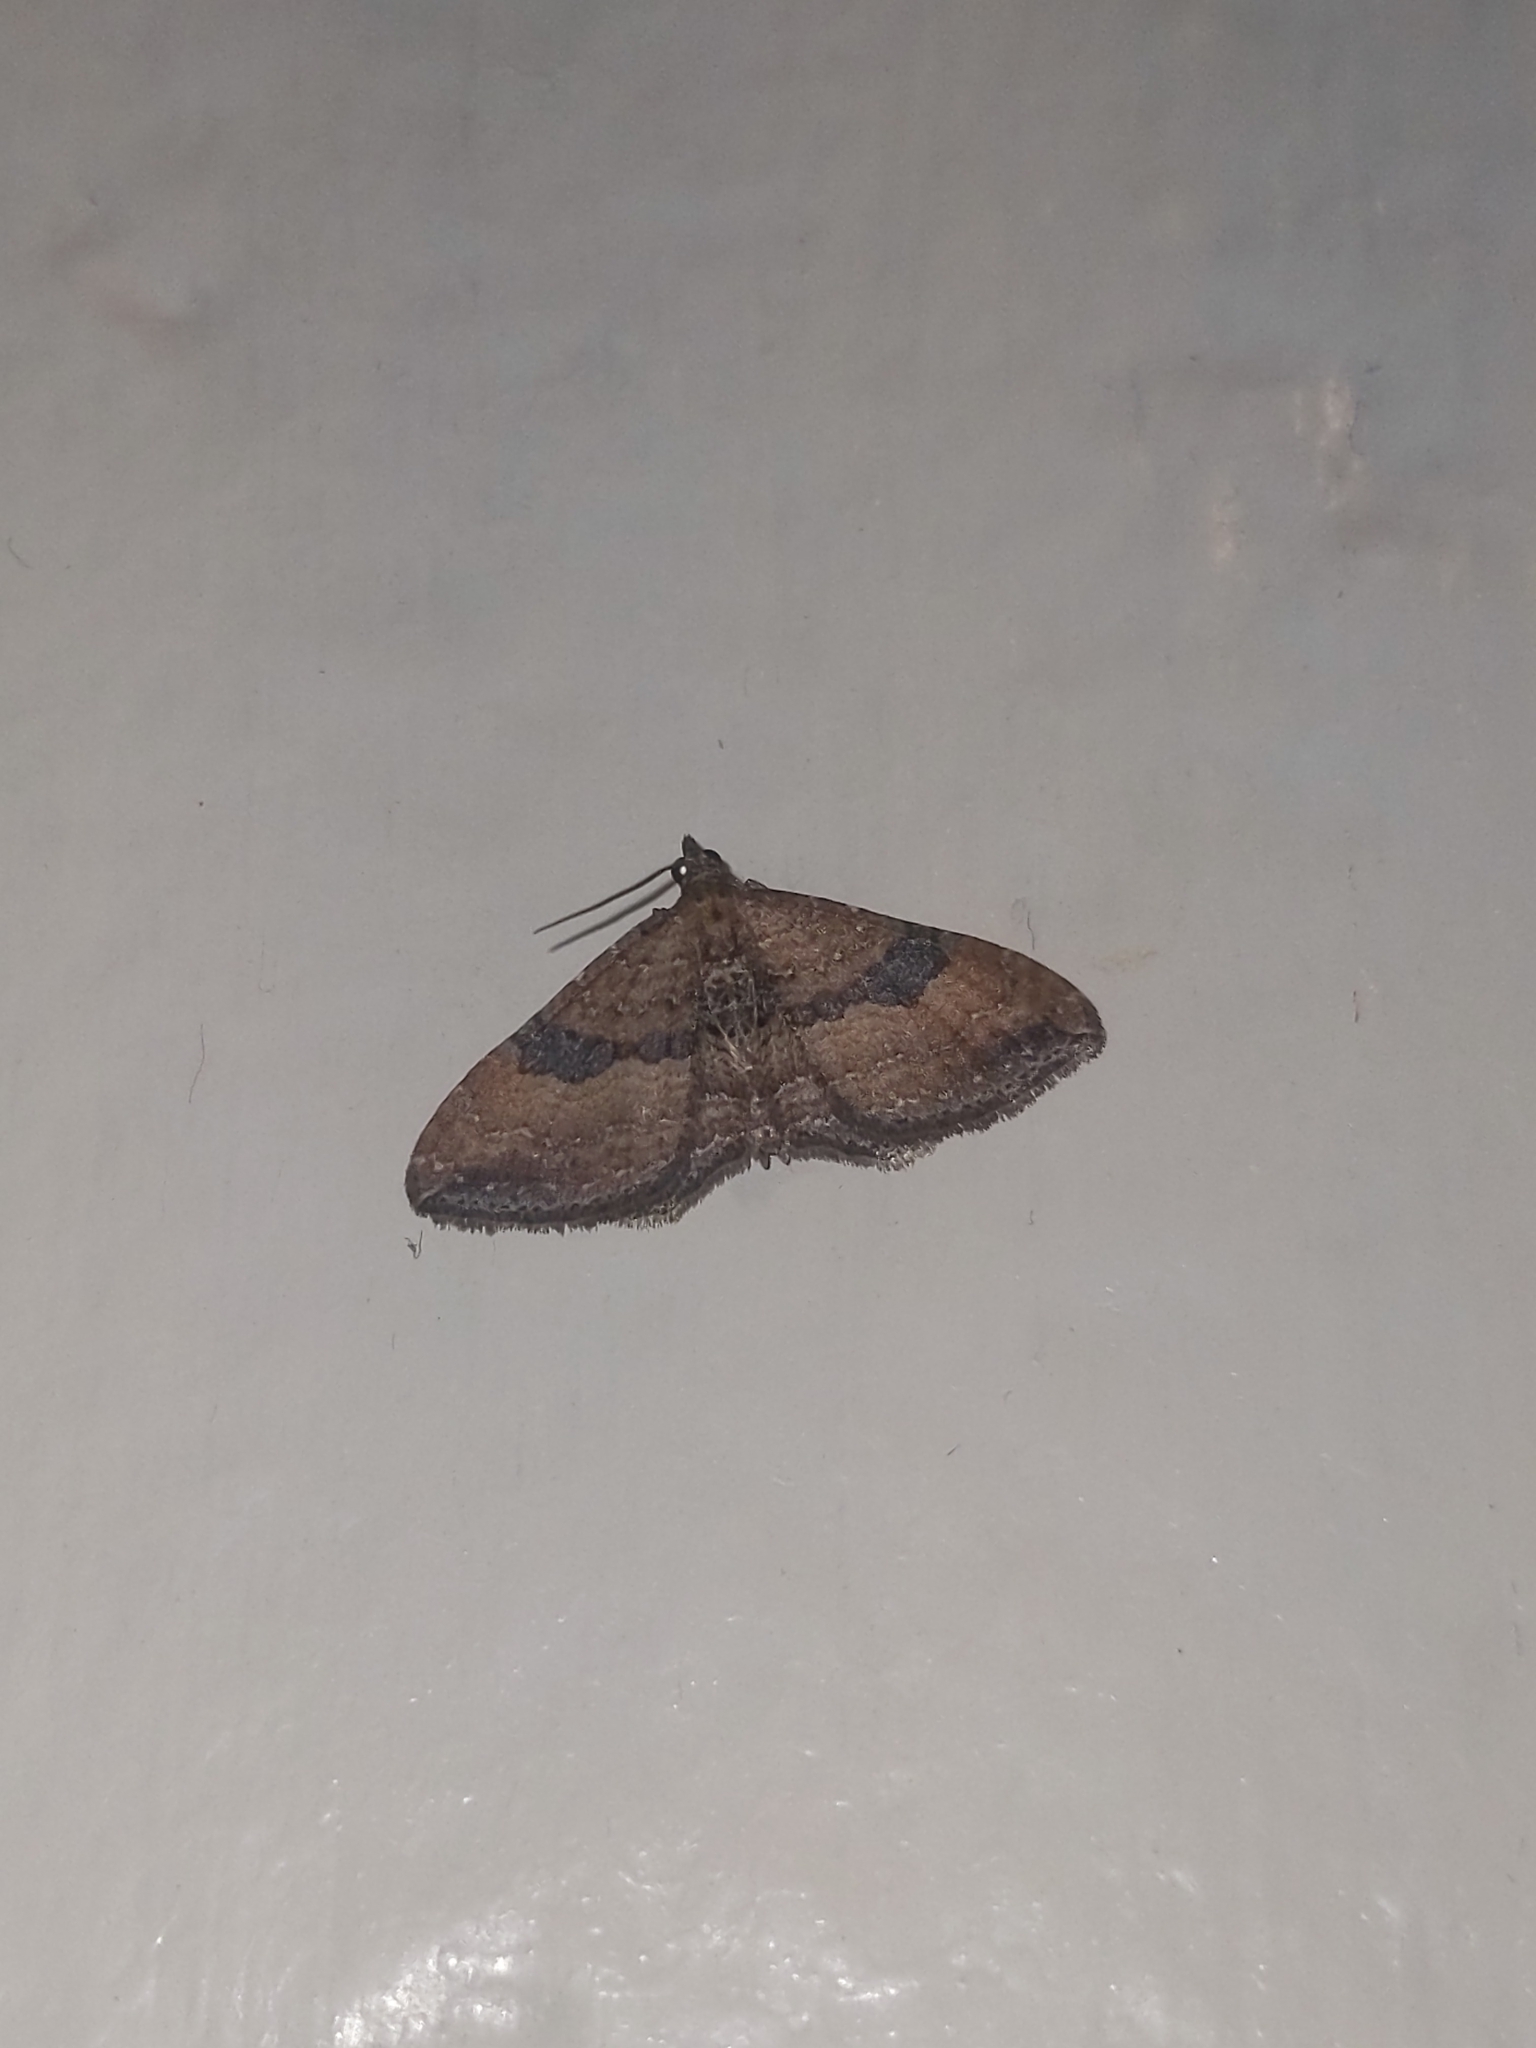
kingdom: Animalia
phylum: Arthropoda
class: Insecta
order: Lepidoptera
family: Geometridae
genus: Orthonama
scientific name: Orthonama obstipata
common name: The gem
